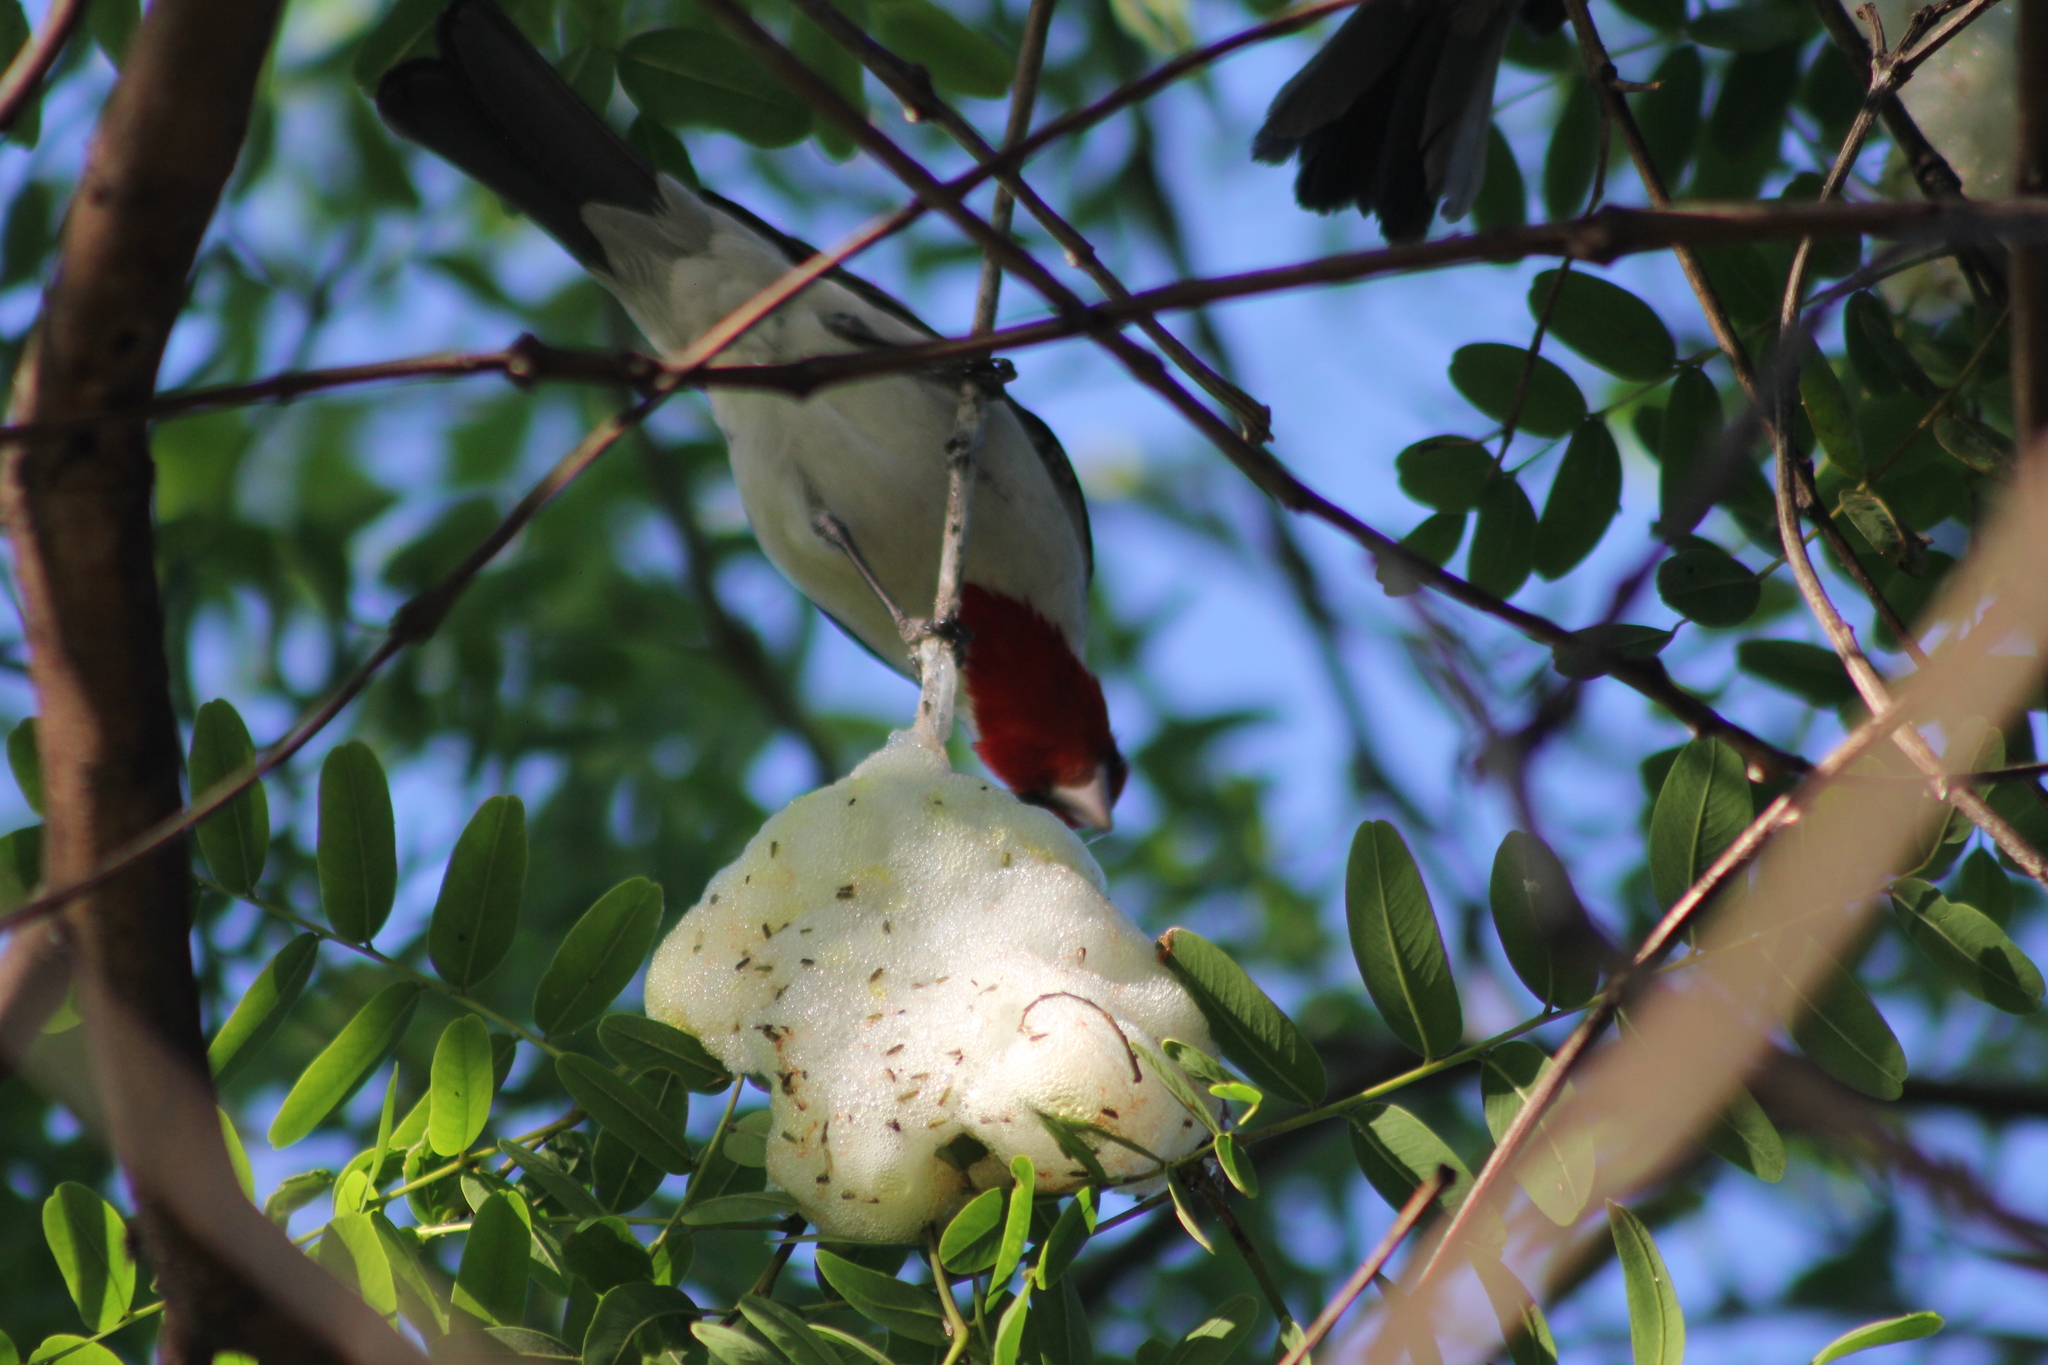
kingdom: Animalia
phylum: Chordata
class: Aves
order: Passeriformes
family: Thraupidae
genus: Paroaria
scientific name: Paroaria coronata
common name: Red-crested cardinal
